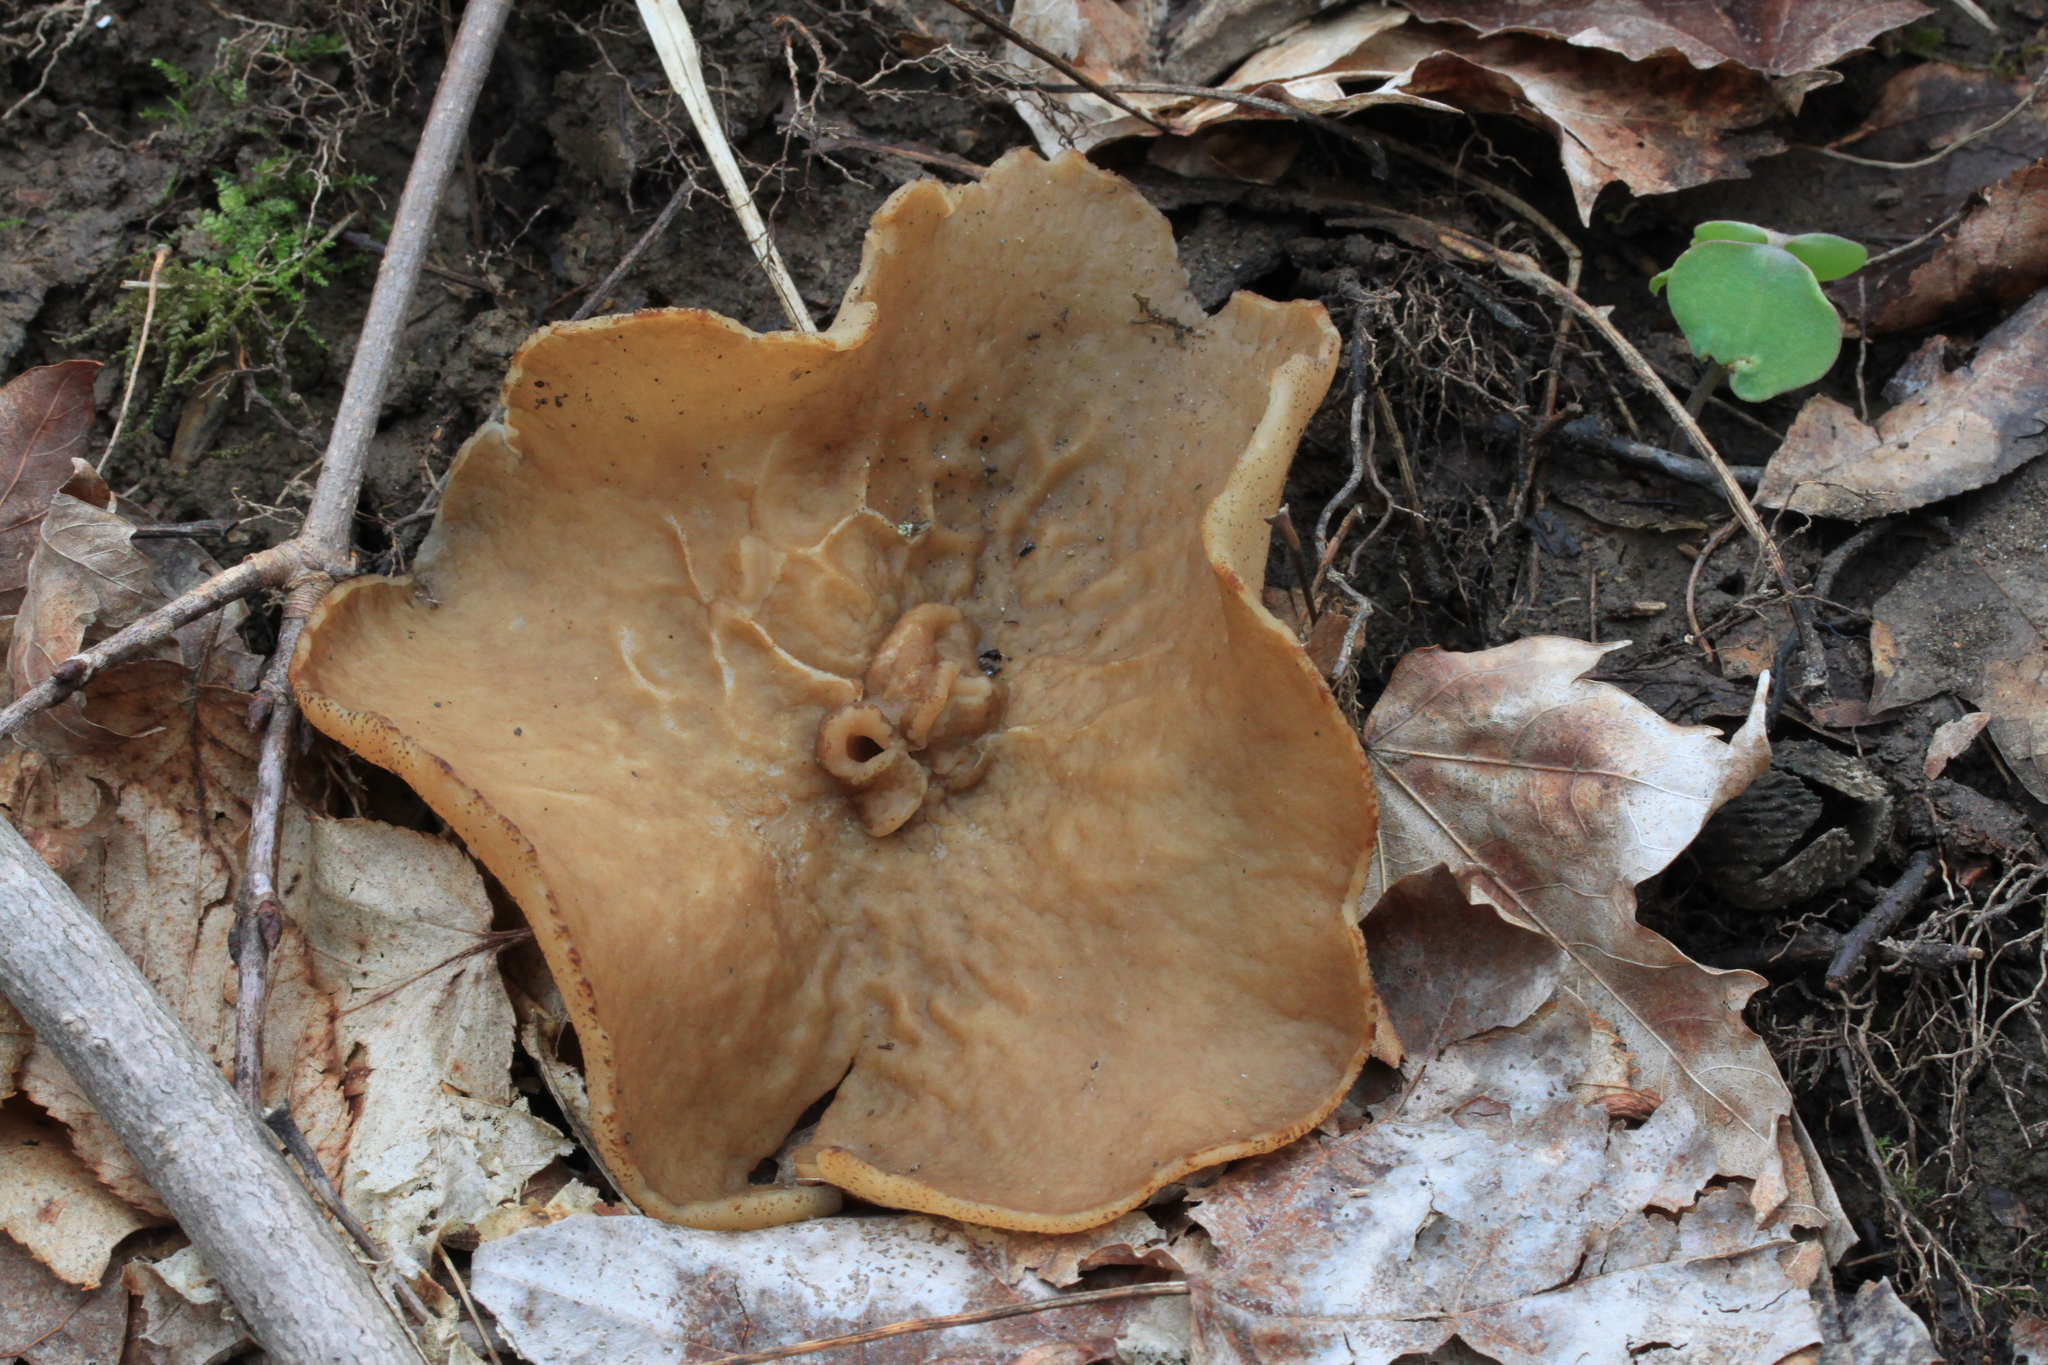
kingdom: Fungi
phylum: Ascomycota
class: Pezizomycetes
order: Pezizales
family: Morchellaceae
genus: Disciotis
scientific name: Disciotis venosa
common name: Bleach cup
